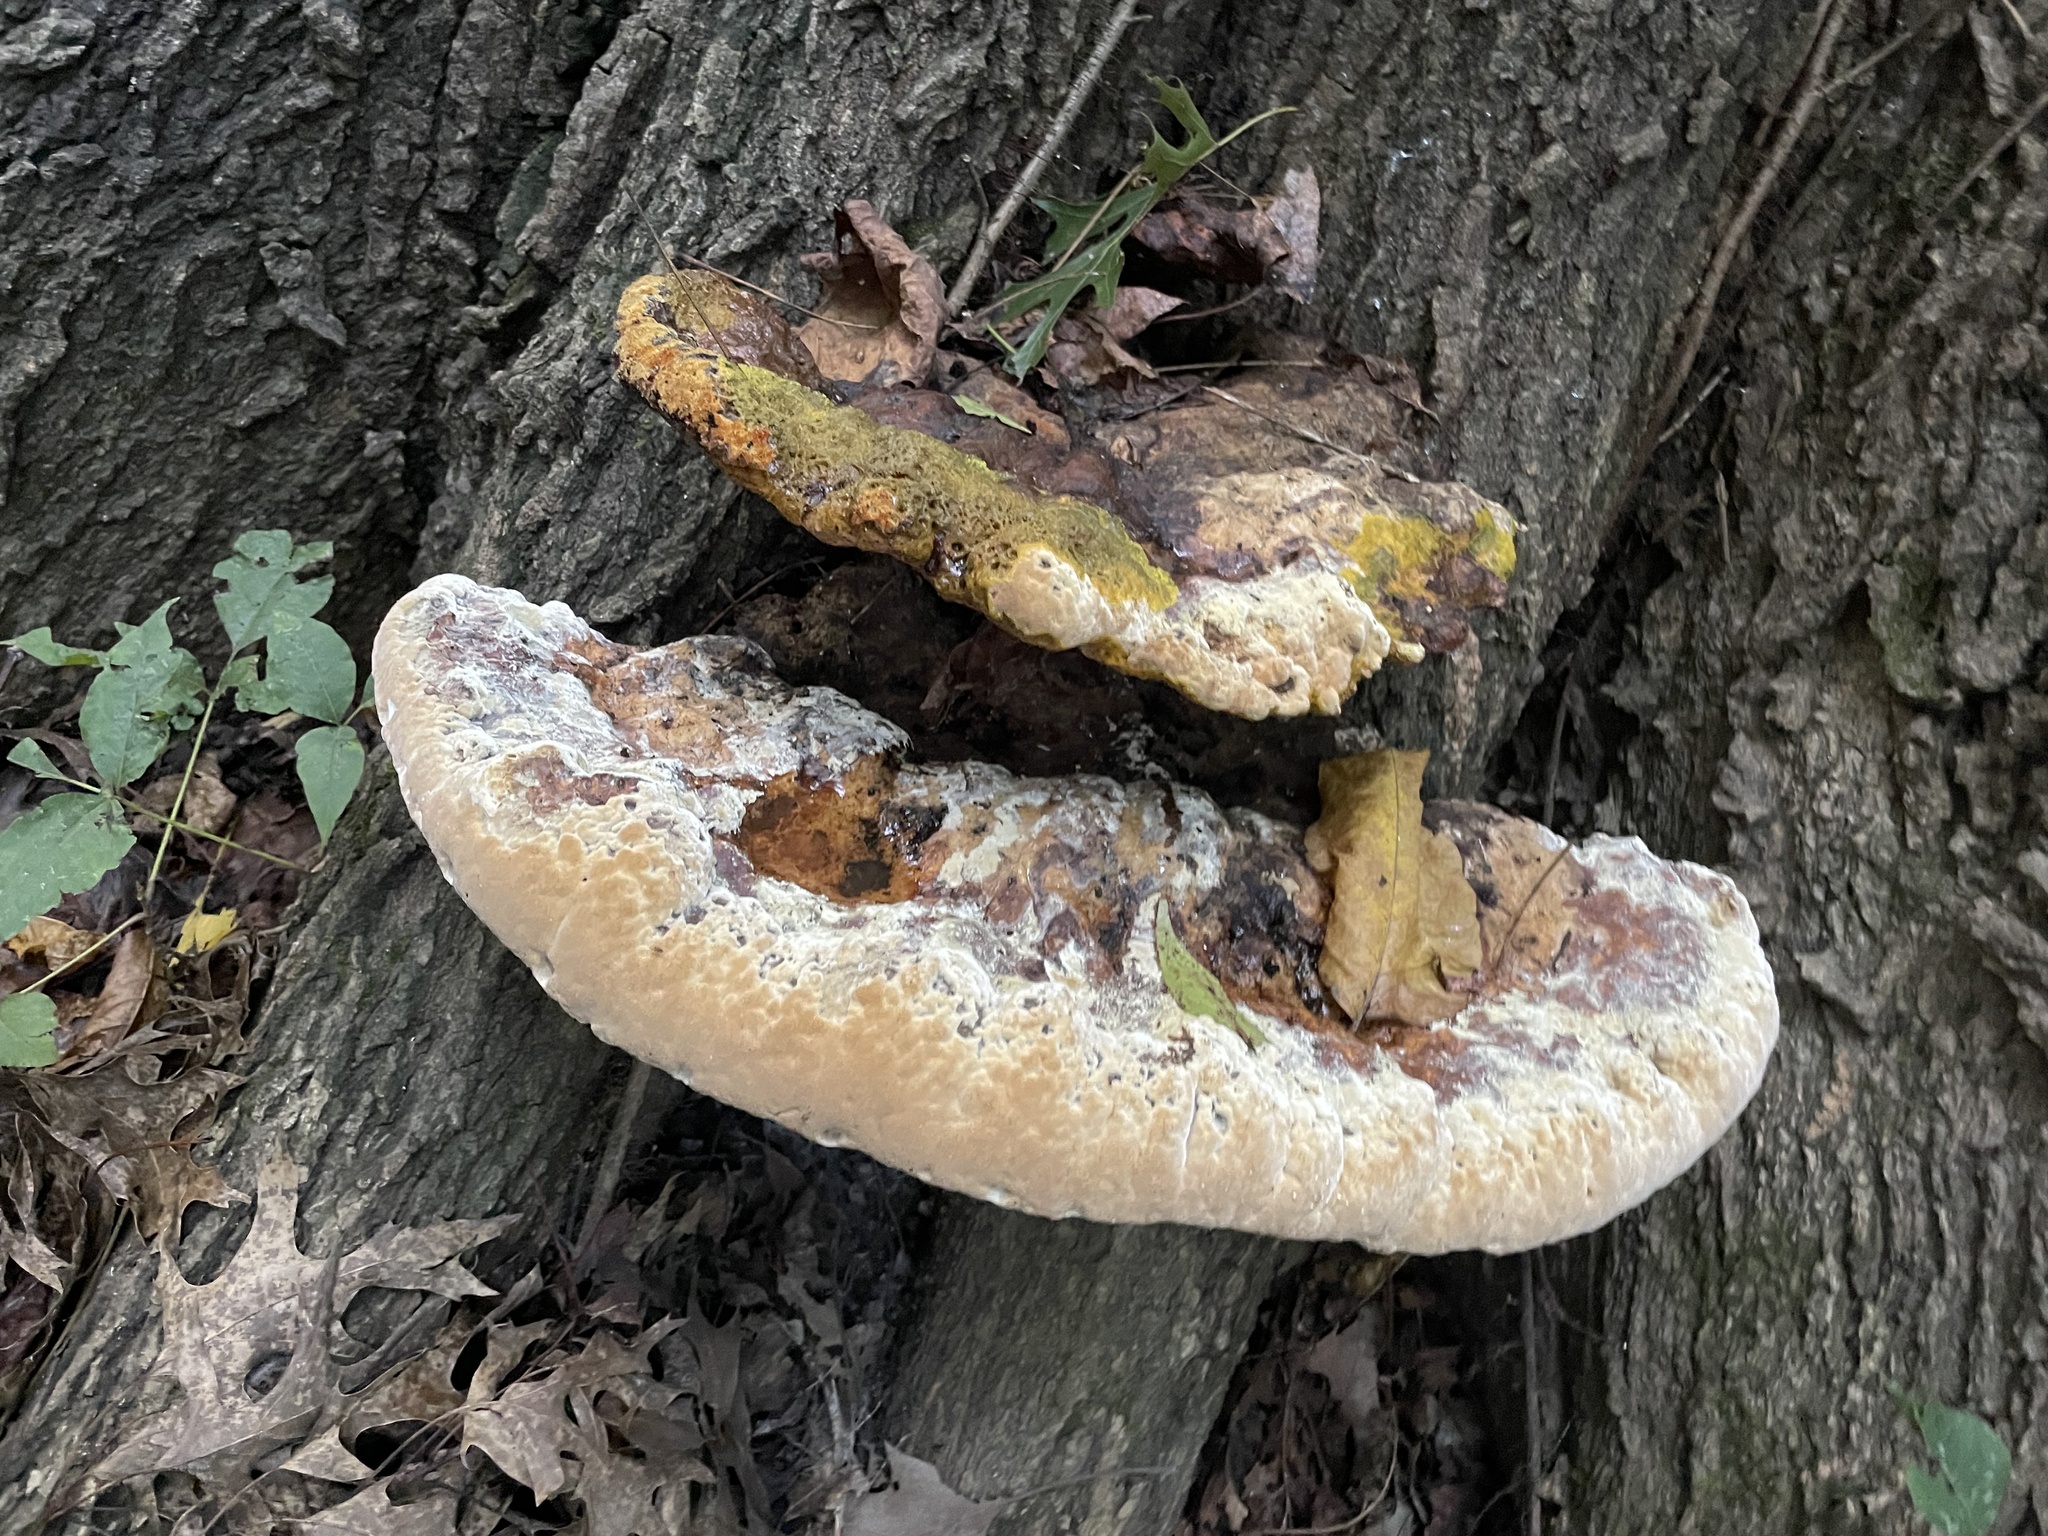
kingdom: Fungi
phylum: Basidiomycota
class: Agaricomycetes
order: Hymenochaetales
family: Hymenochaetaceae
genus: Pseudoinonotus
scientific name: Pseudoinonotus dryadeus
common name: Oak bracket
